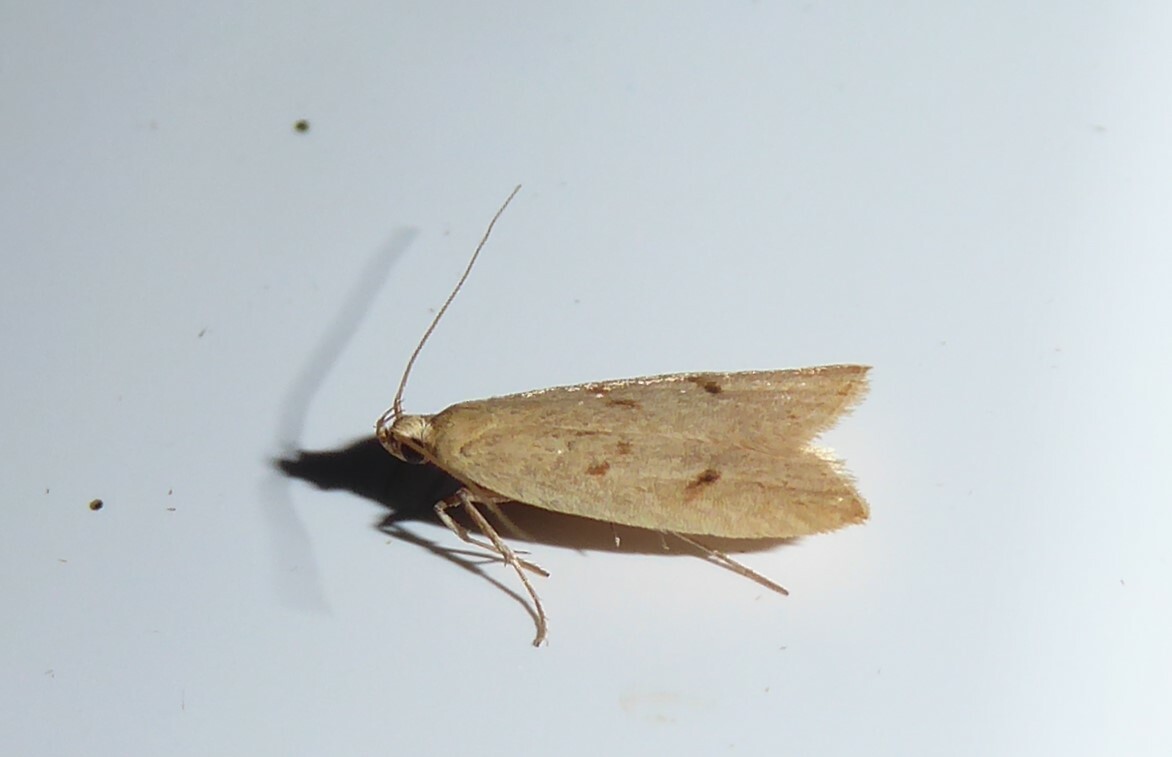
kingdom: Animalia
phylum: Arthropoda
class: Insecta
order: Lepidoptera
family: Oecophoridae
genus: Gymnobathra
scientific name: Gymnobathra sarcoxantha
